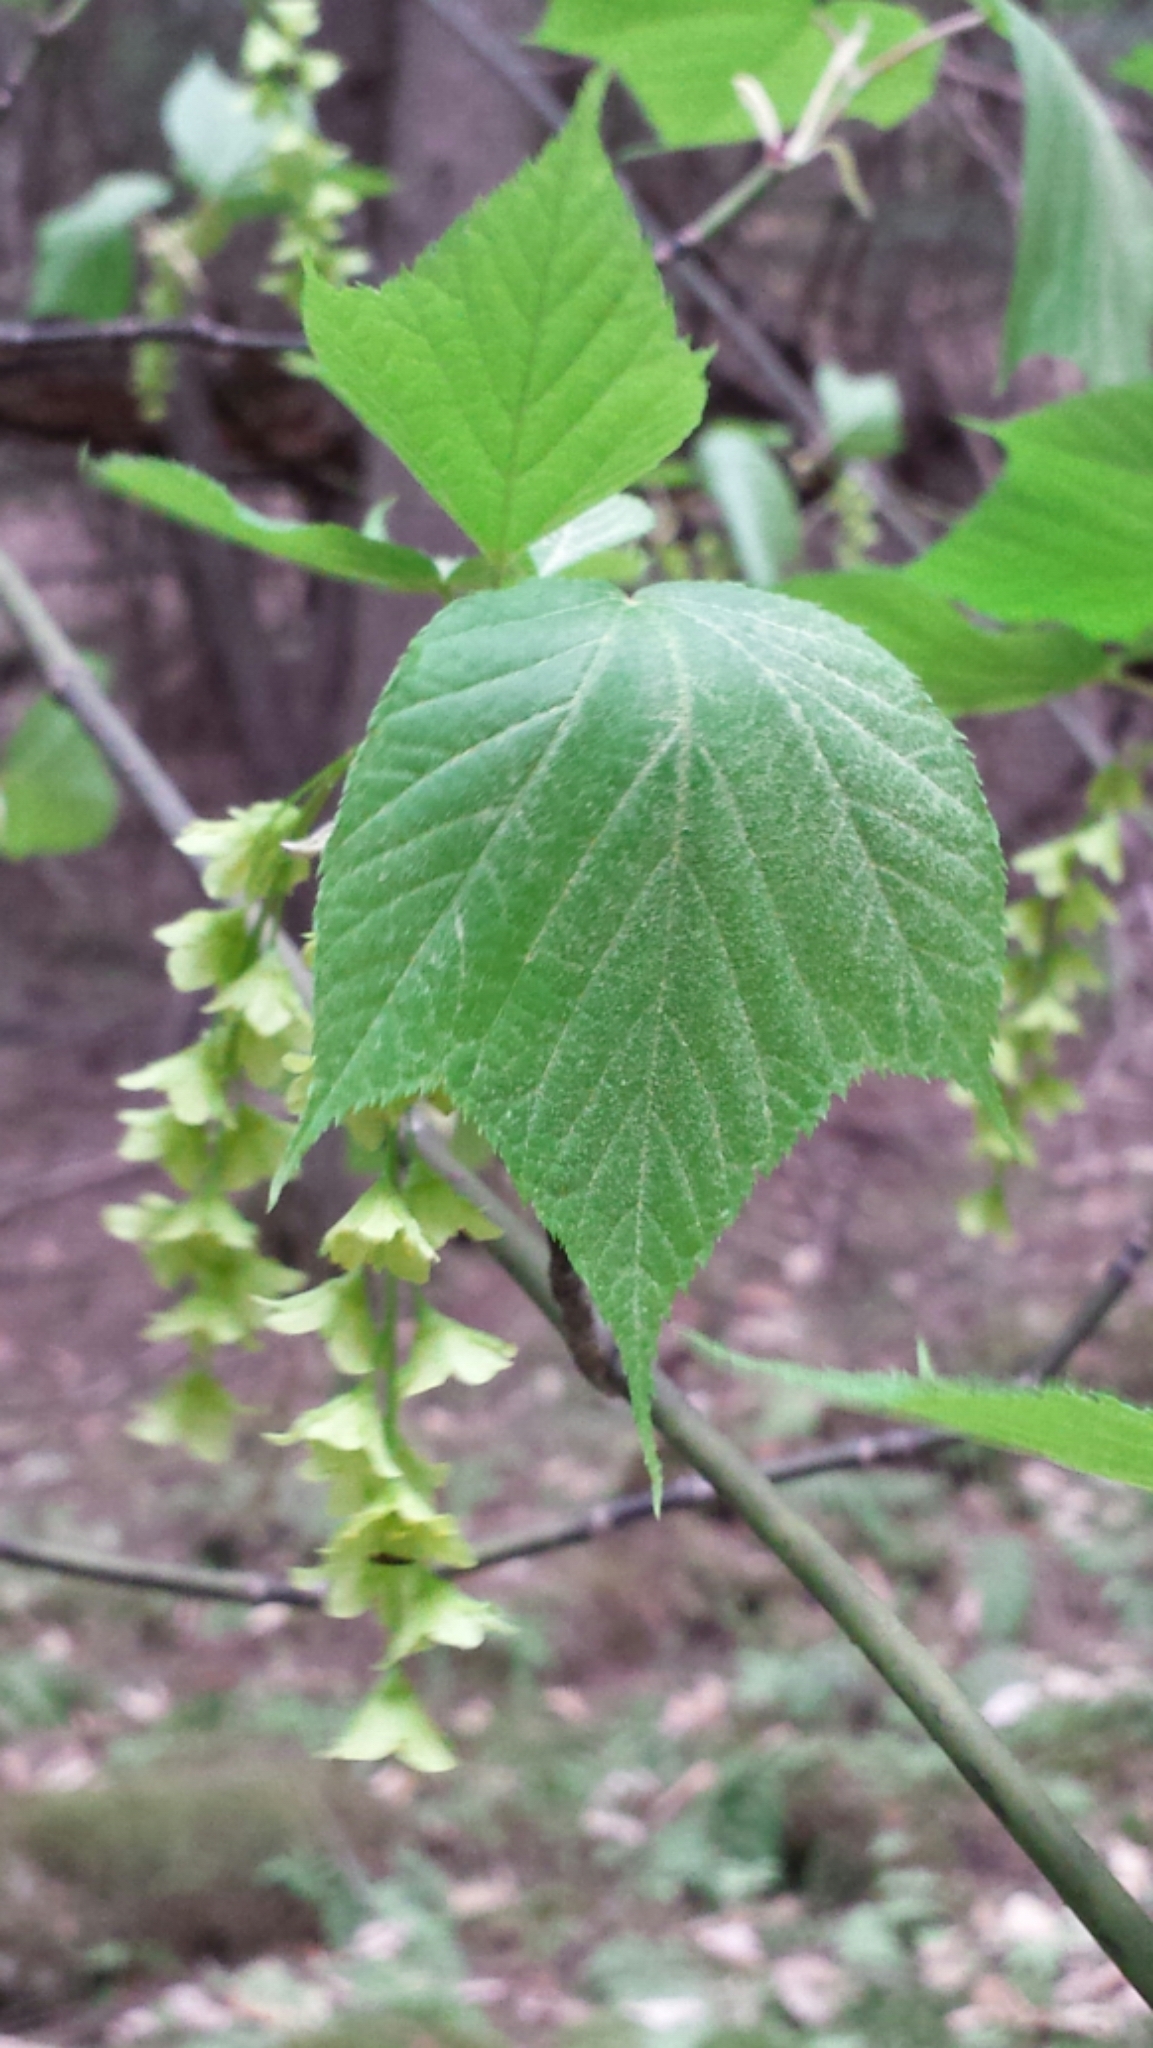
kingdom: Plantae
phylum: Tracheophyta
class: Magnoliopsida
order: Sapindales
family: Sapindaceae
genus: Acer
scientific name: Acer pensylvanicum
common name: Moosewood
